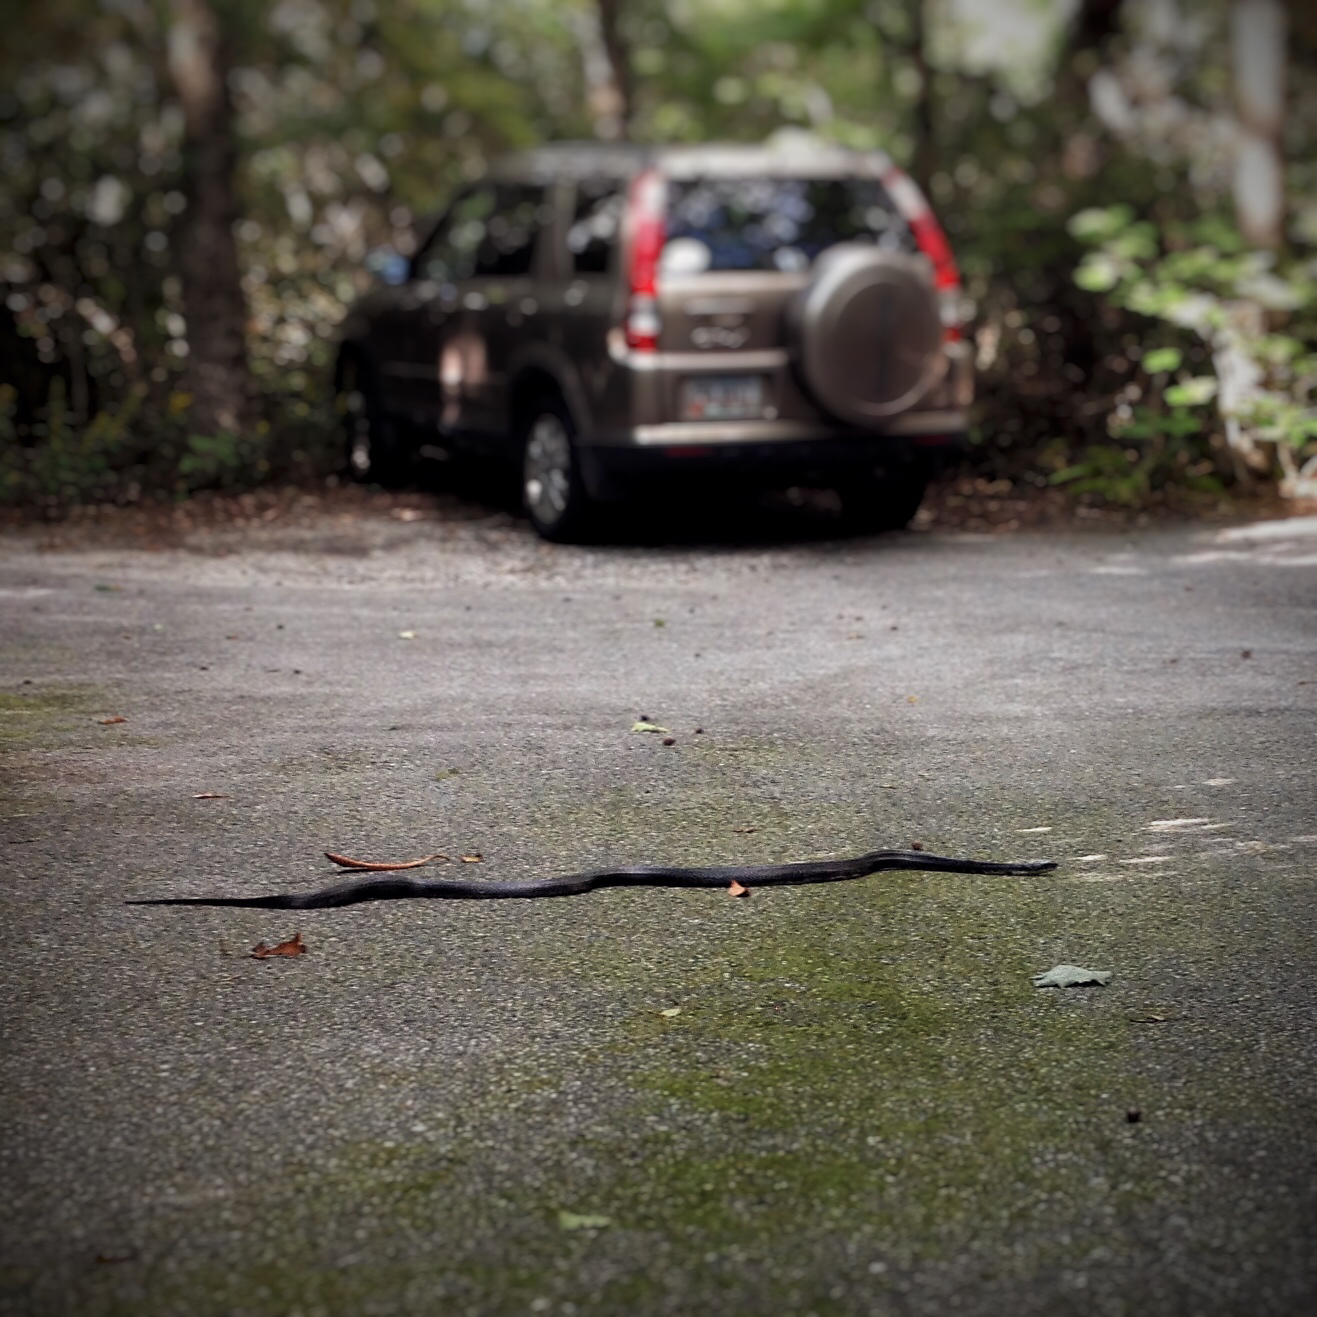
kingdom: Animalia
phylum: Chordata
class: Squamata
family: Colubridae
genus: Pantherophis
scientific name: Pantherophis alleghaniensis
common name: Eastern rat snake
